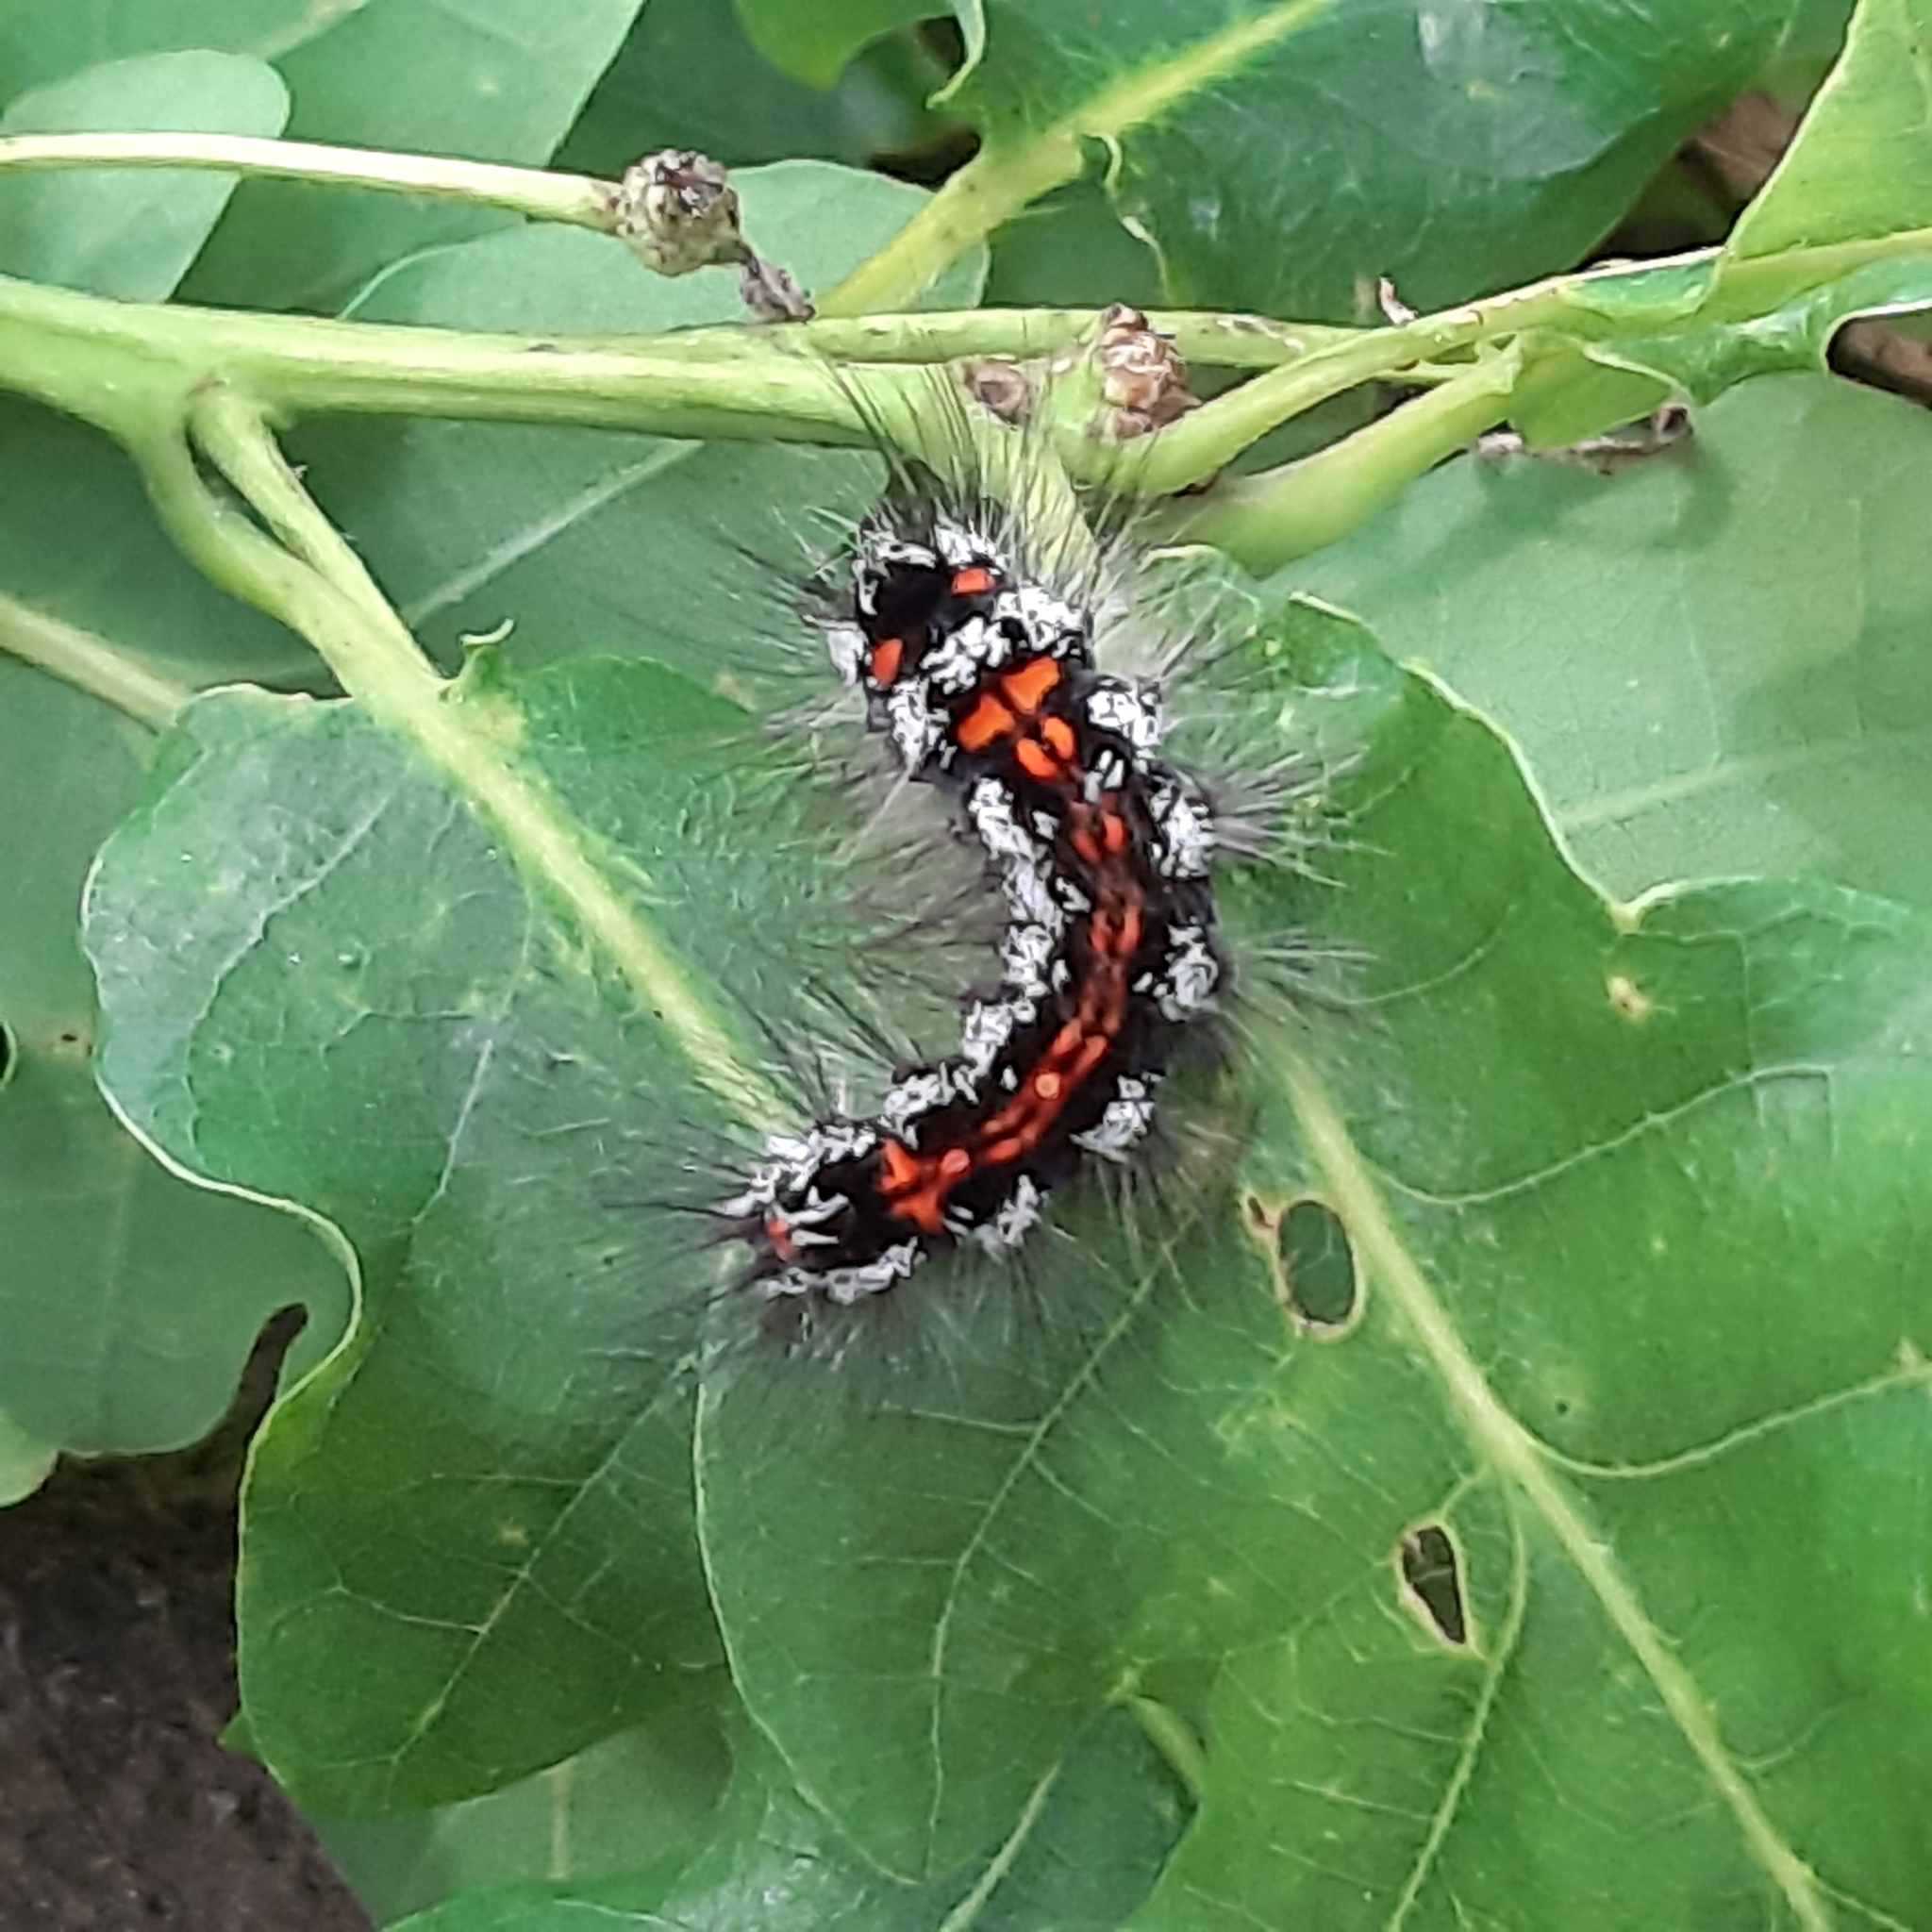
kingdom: Animalia
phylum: Arthropoda
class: Insecta
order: Lepidoptera
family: Erebidae
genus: Sphrageidus
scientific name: Sphrageidus similis
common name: Yellow-tail
